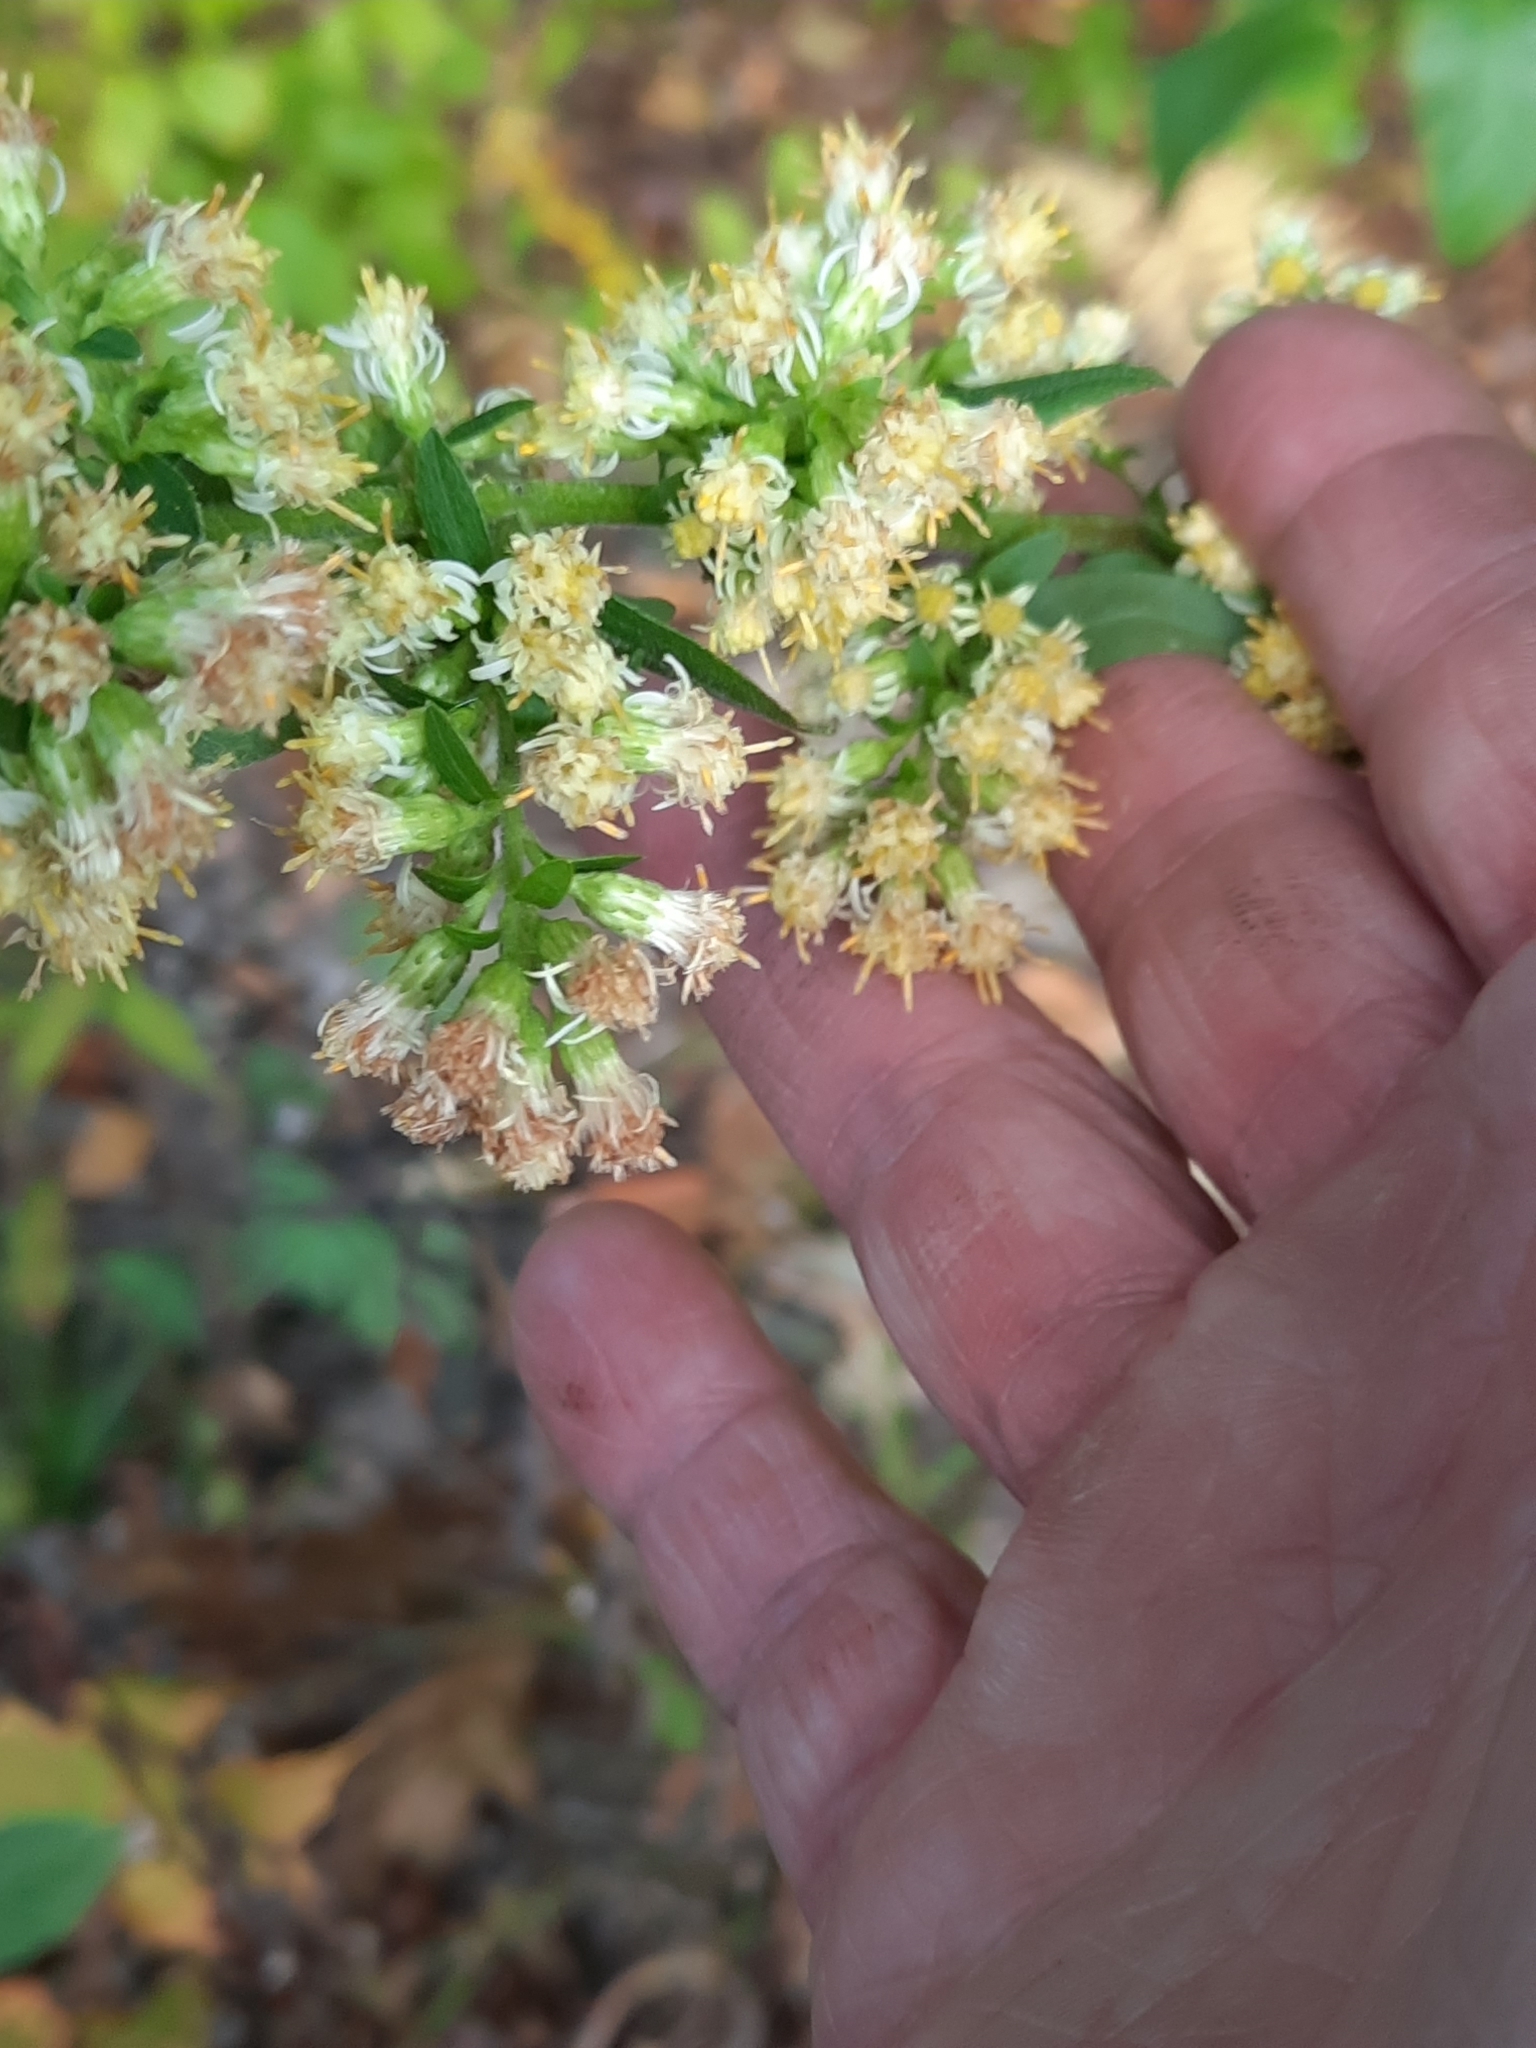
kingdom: Plantae
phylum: Tracheophyta
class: Magnoliopsida
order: Asterales
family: Asteraceae
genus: Solidago
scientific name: Solidago bicolor
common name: Silverrod
